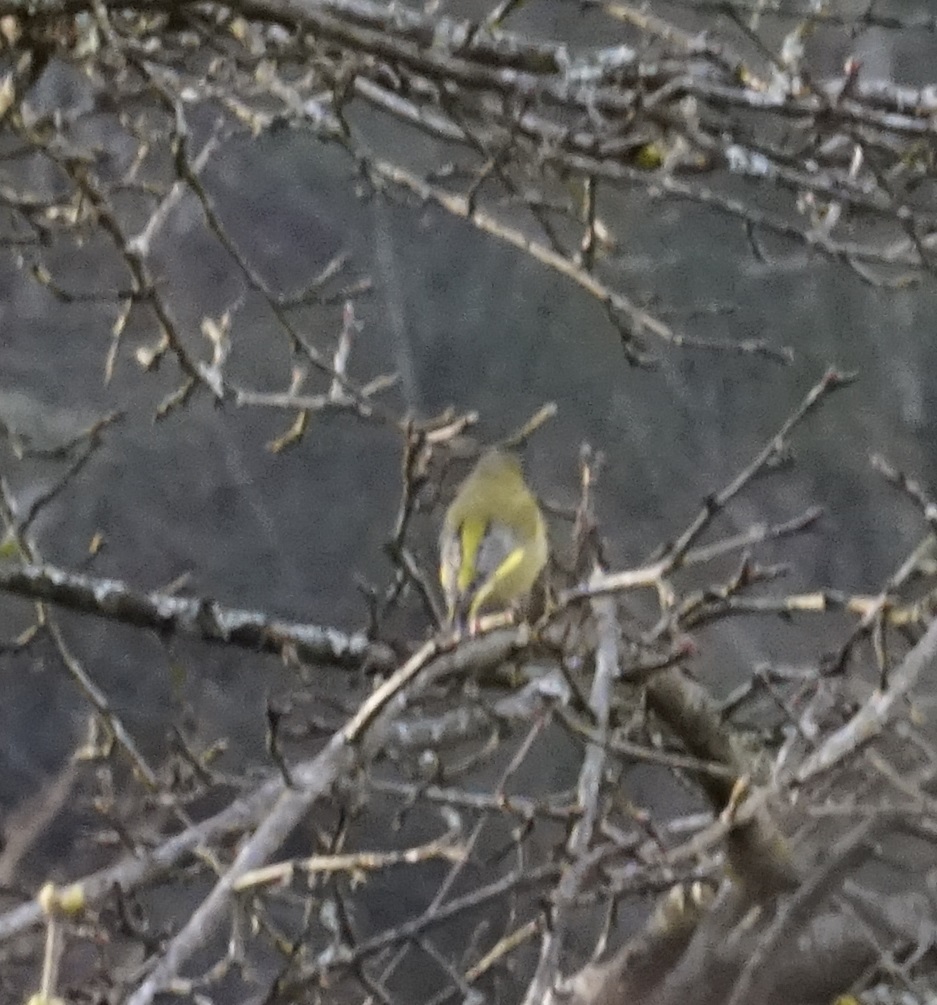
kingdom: Plantae
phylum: Tracheophyta
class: Liliopsida
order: Poales
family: Poaceae
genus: Chloris
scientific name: Chloris chloris
